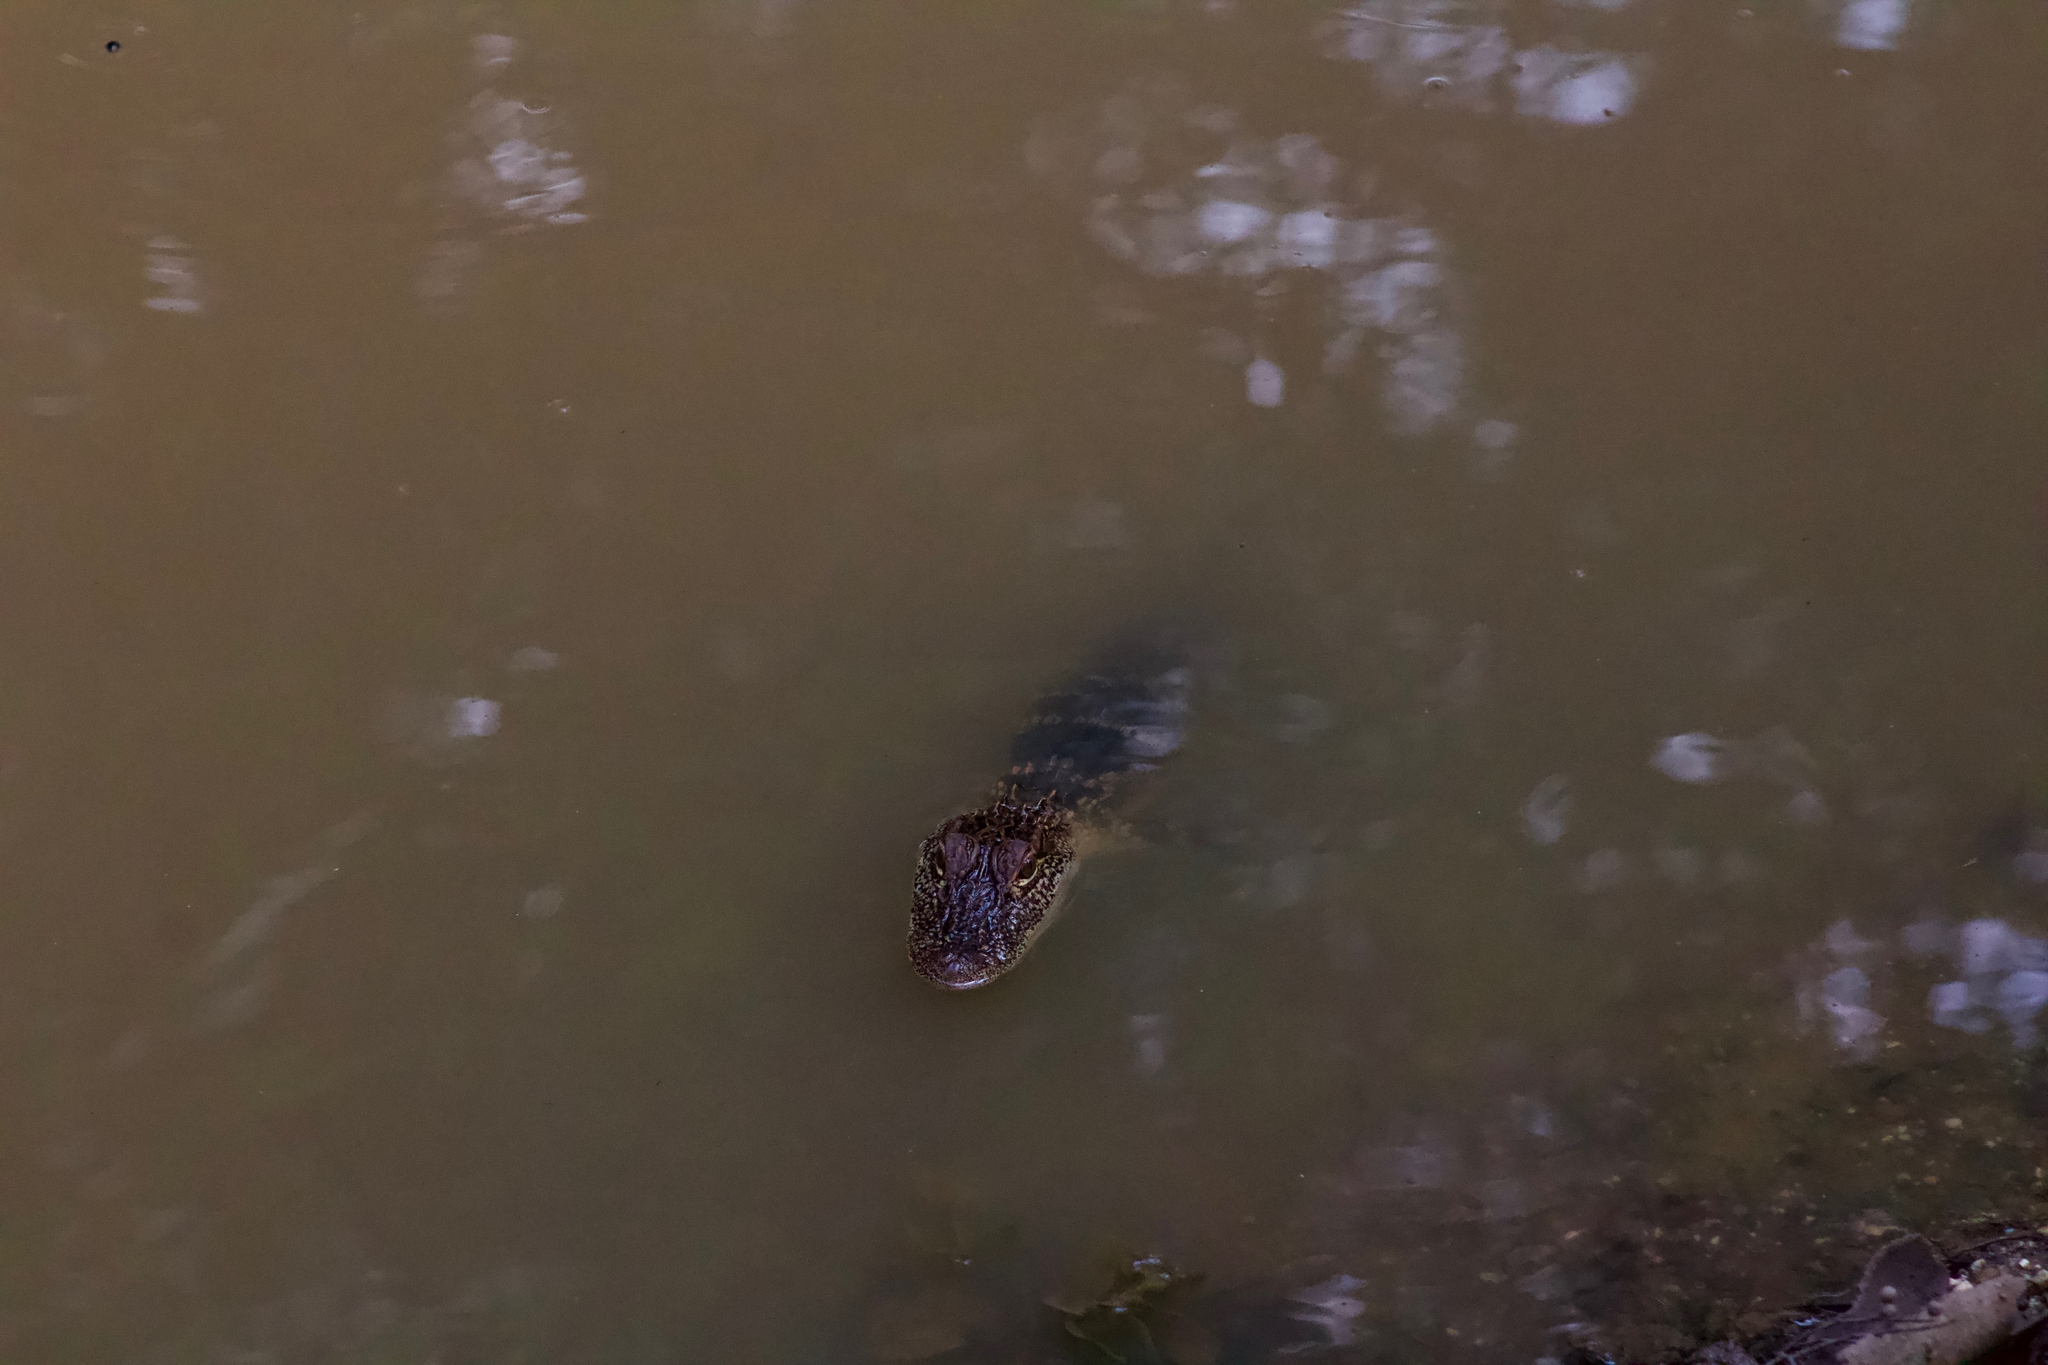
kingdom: Animalia
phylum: Chordata
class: Crocodylia
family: Alligatoridae
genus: Alligator
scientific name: Alligator mississippiensis
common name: American alligator
